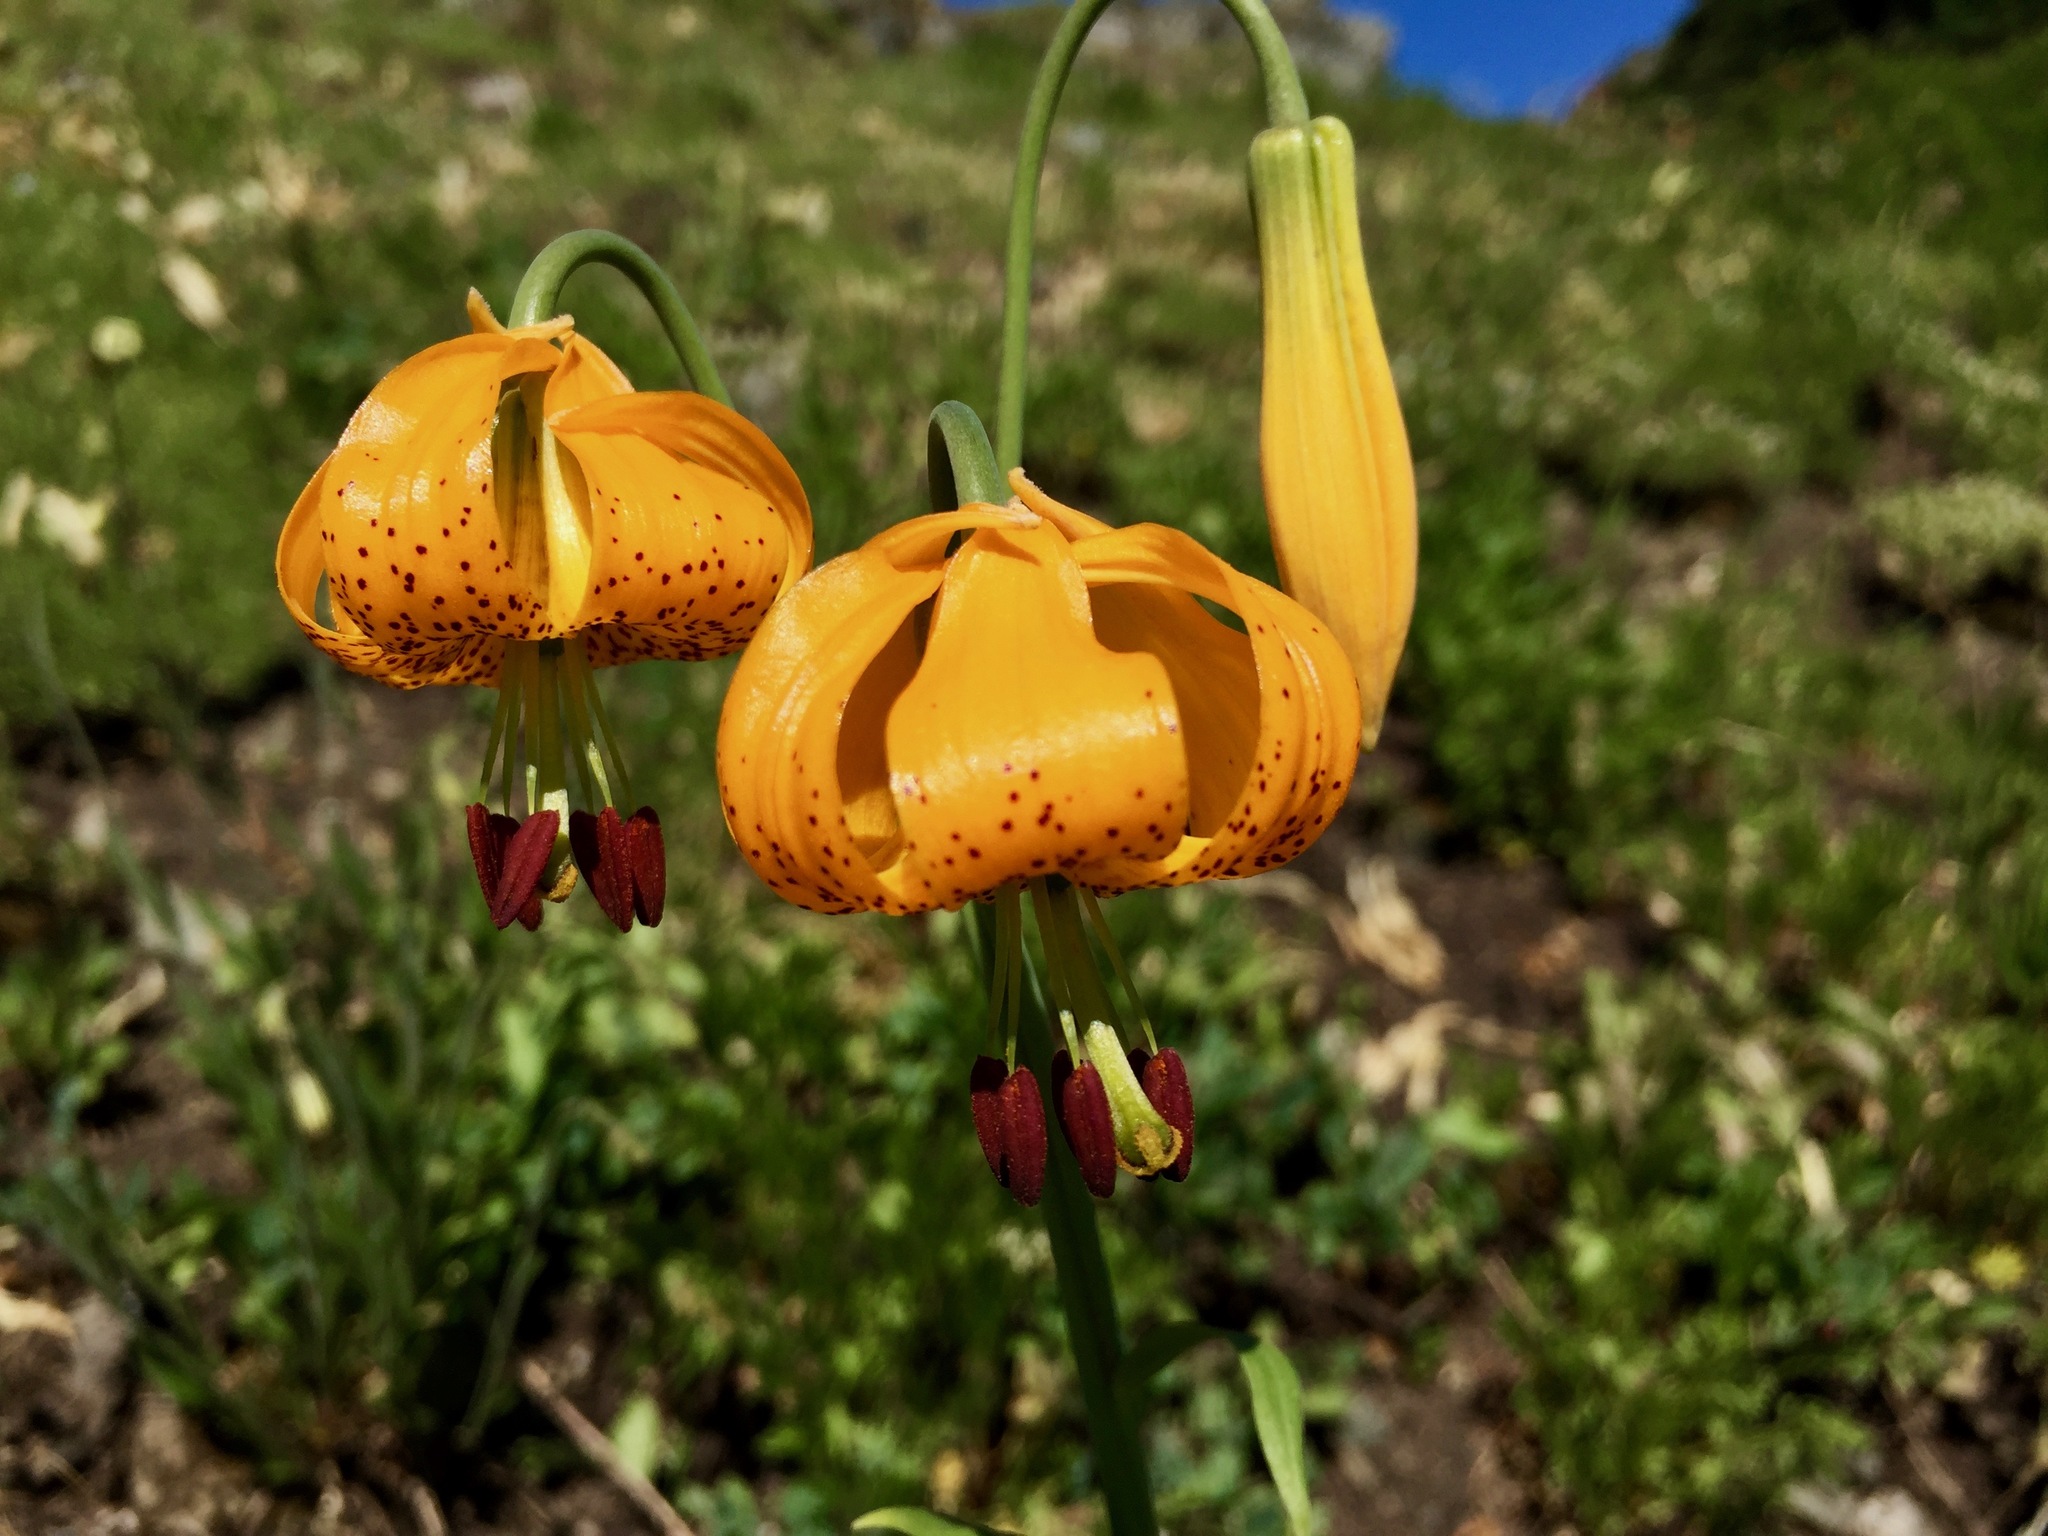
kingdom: Plantae
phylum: Tracheophyta
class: Liliopsida
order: Liliales
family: Liliaceae
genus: Lilium
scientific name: Lilium columbianum
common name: Columbia lily
